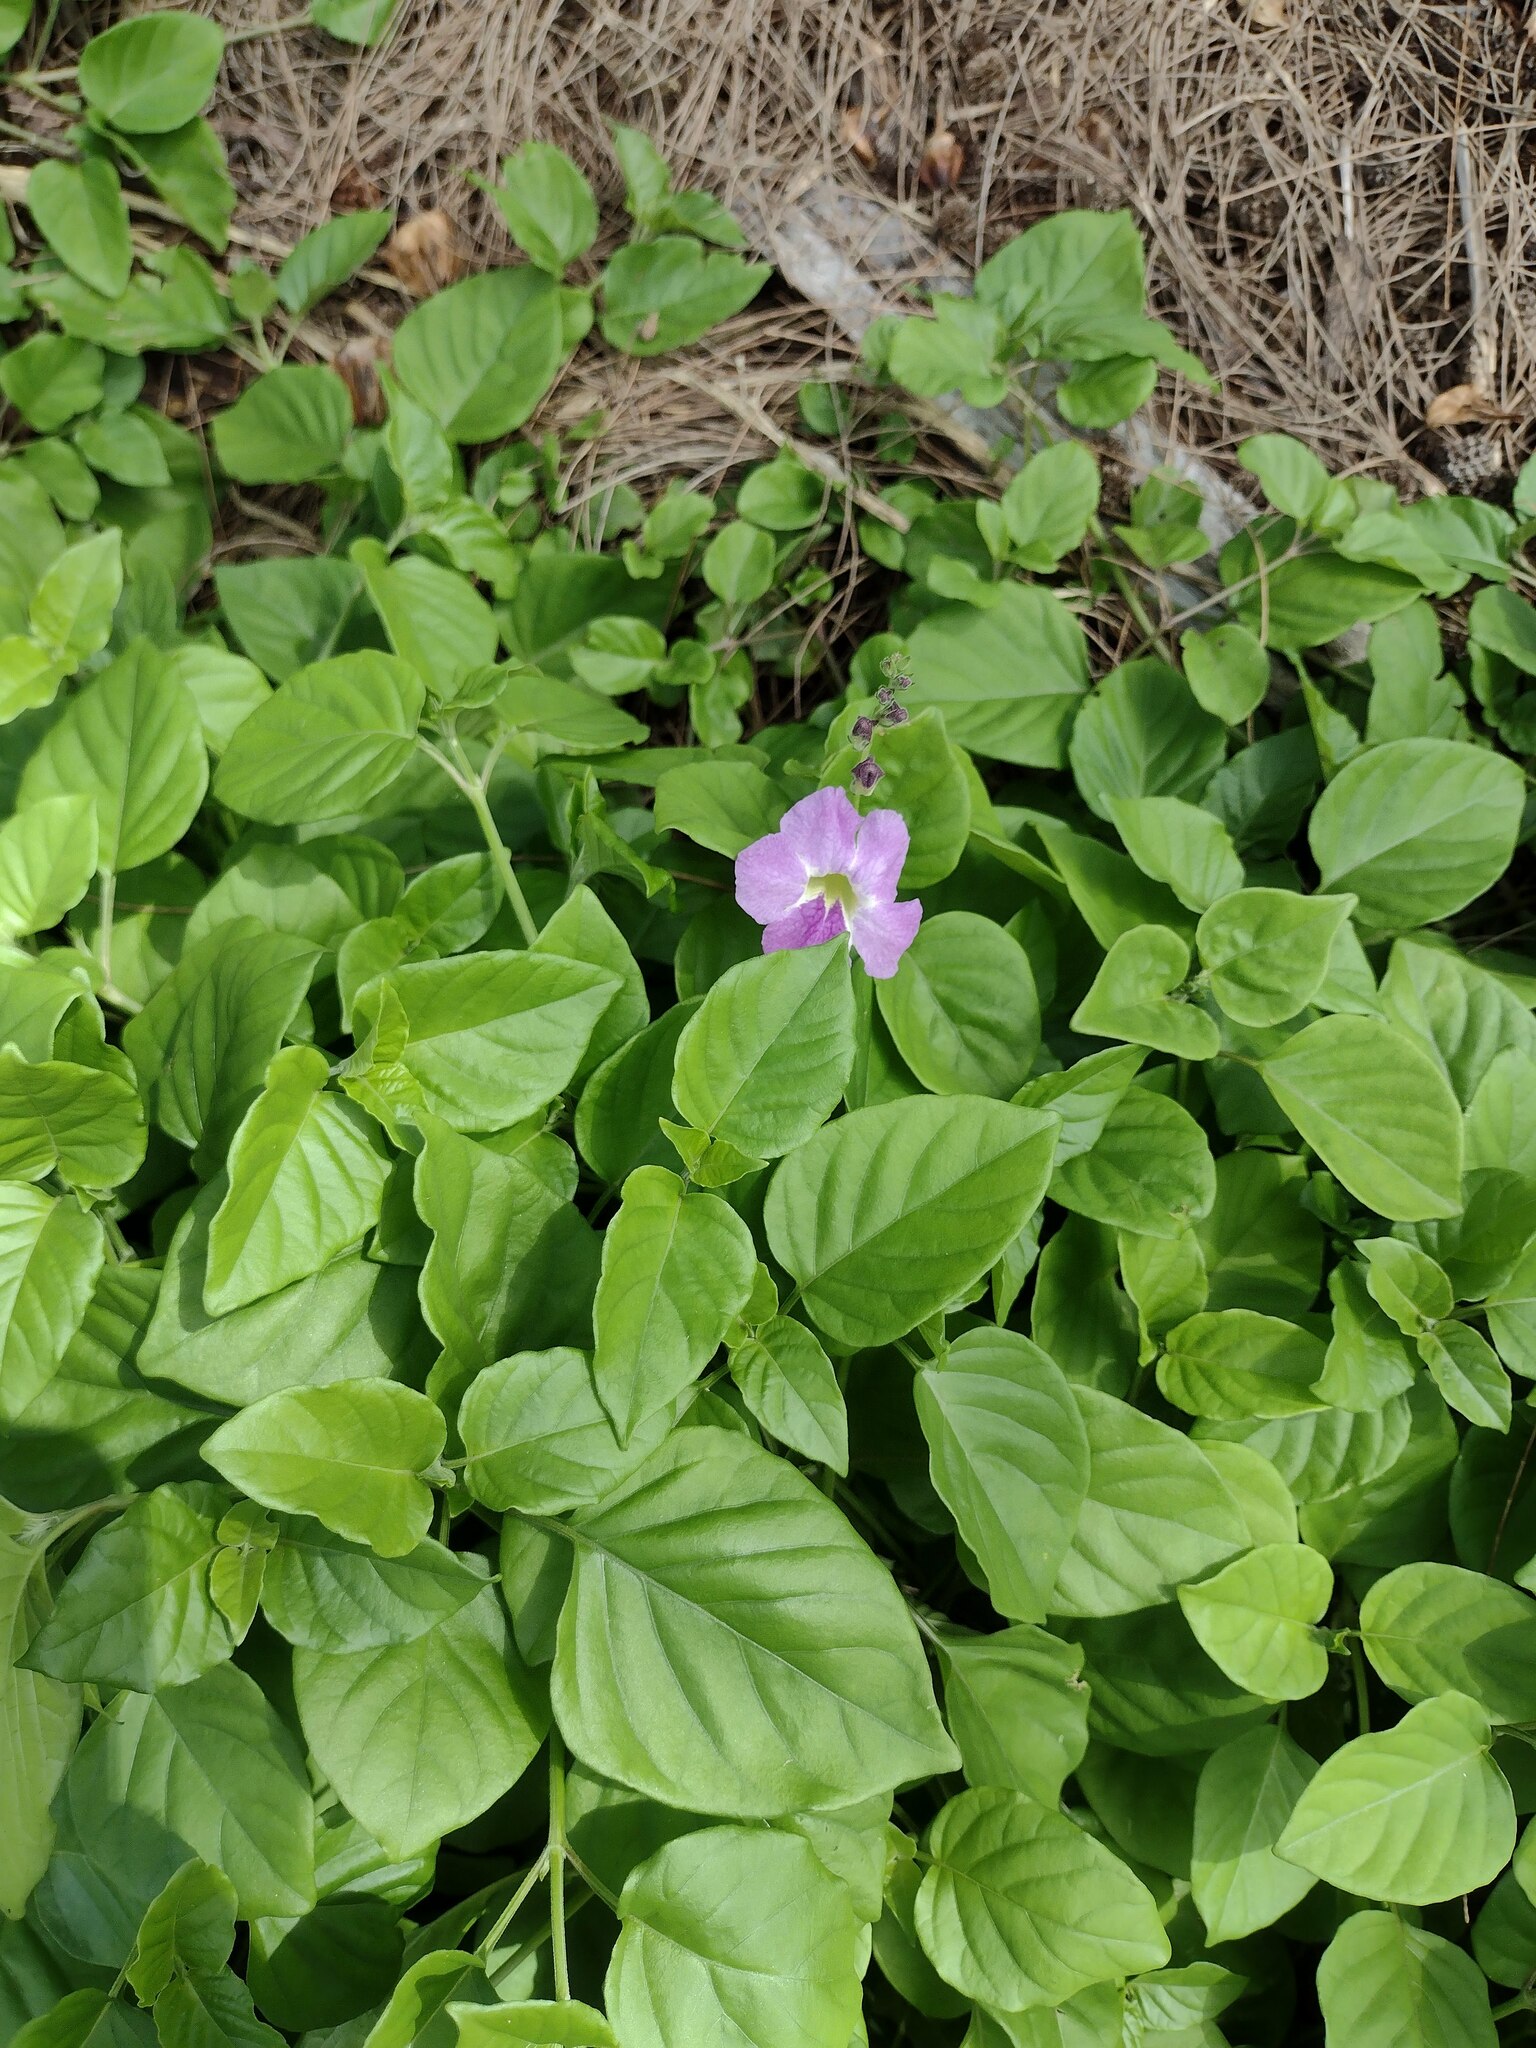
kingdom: Plantae
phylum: Tracheophyta
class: Magnoliopsida
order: Lamiales
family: Acanthaceae
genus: Asystasia
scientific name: Asystasia gangetica
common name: Chinese violet
